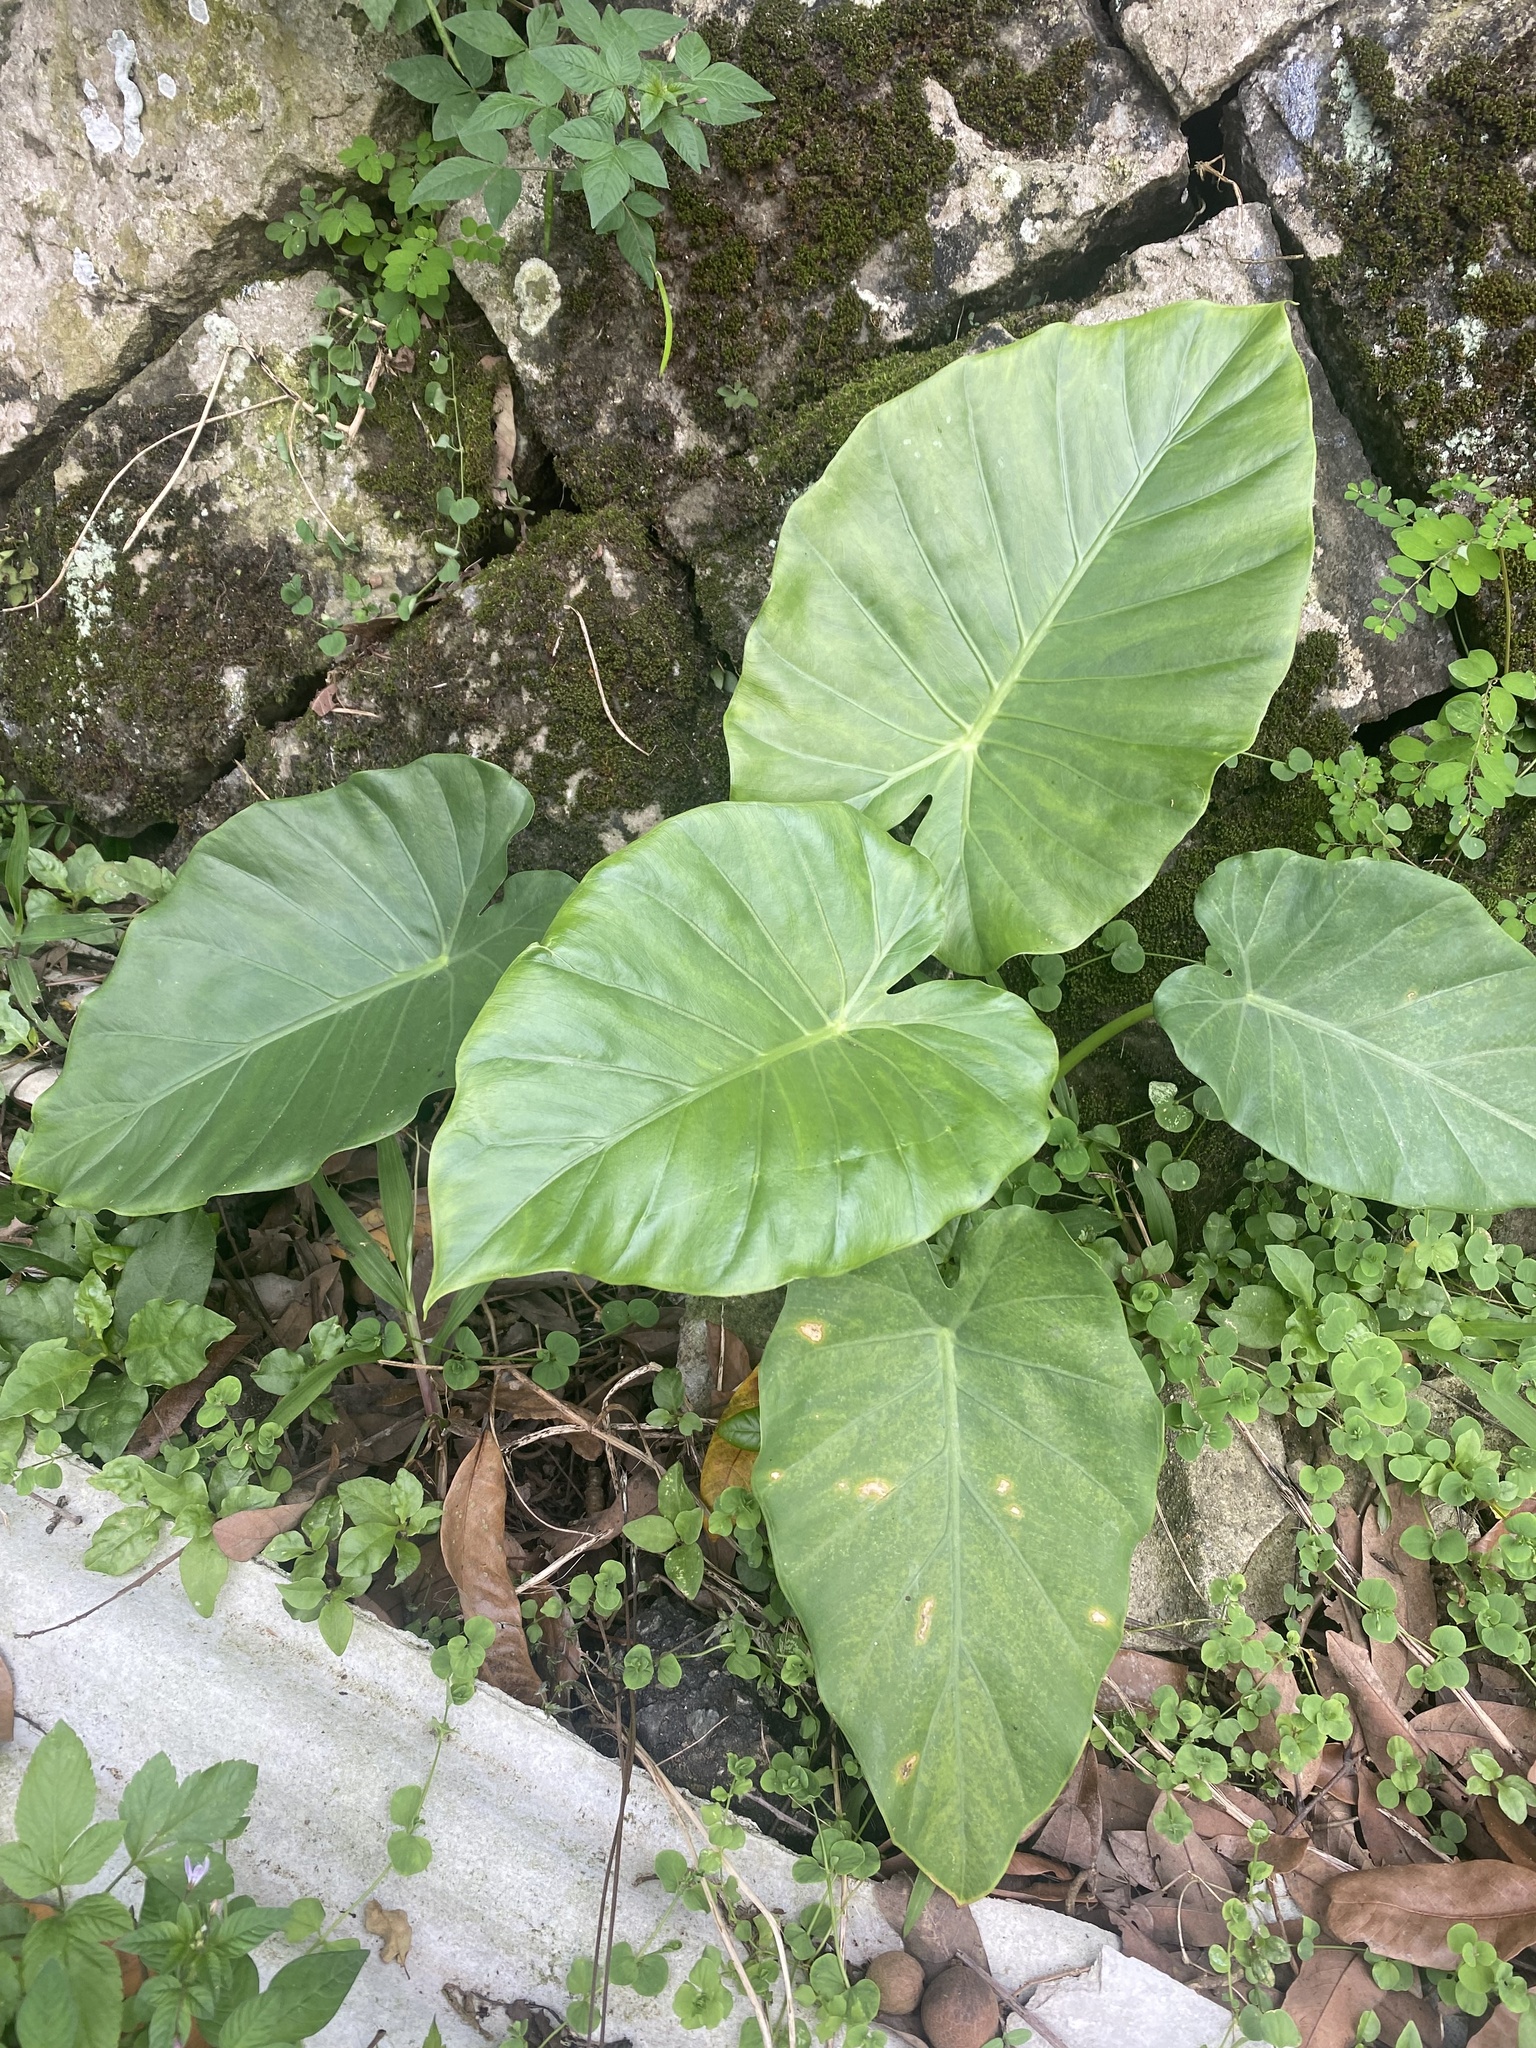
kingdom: Plantae
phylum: Tracheophyta
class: Liliopsida
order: Alismatales
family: Araceae
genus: Alocasia
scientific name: Alocasia odora
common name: Asian taro
